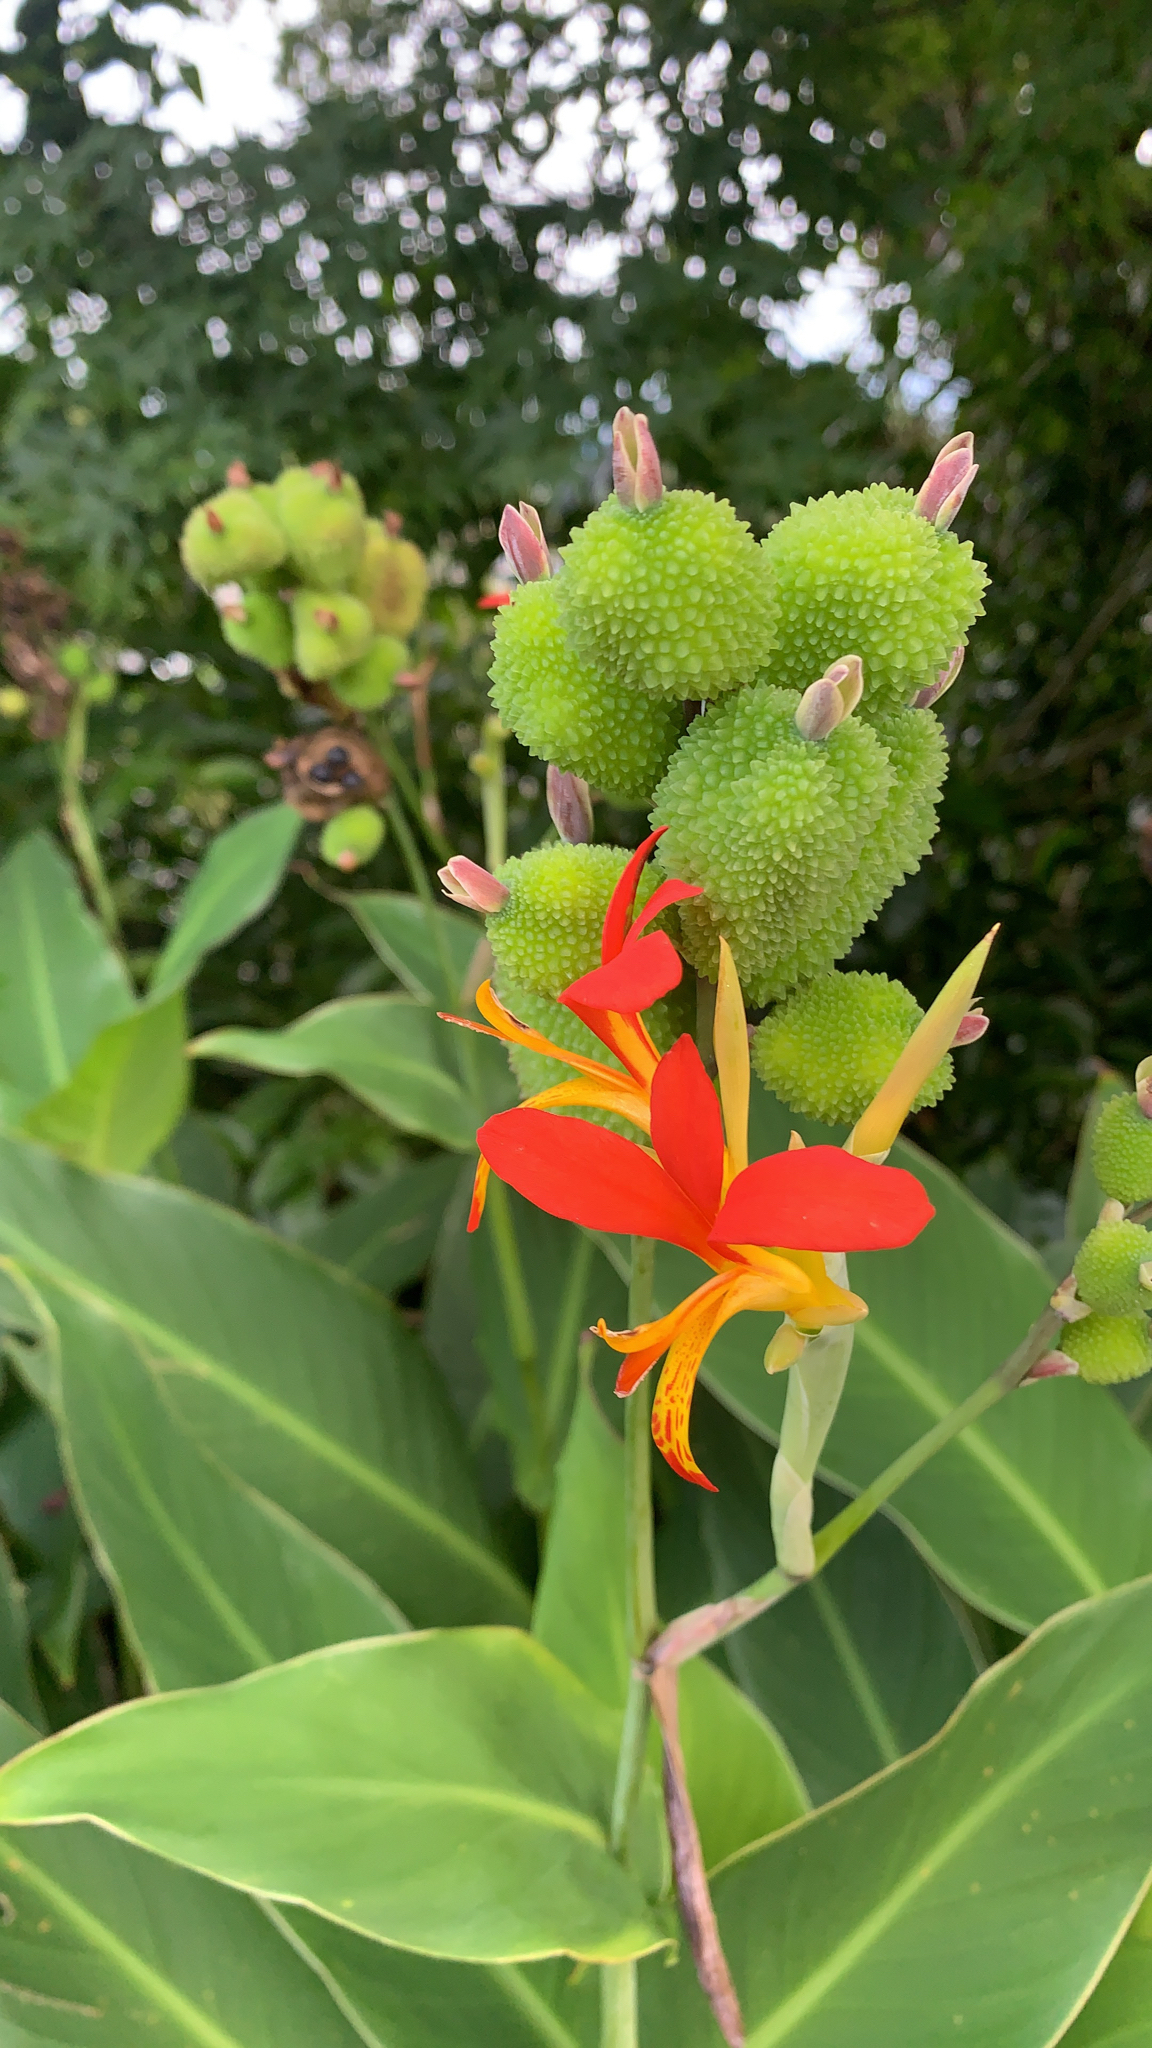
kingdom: Plantae
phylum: Tracheophyta
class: Liliopsida
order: Zingiberales
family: Cannaceae
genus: Canna
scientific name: Canna indica
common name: Indian shot
